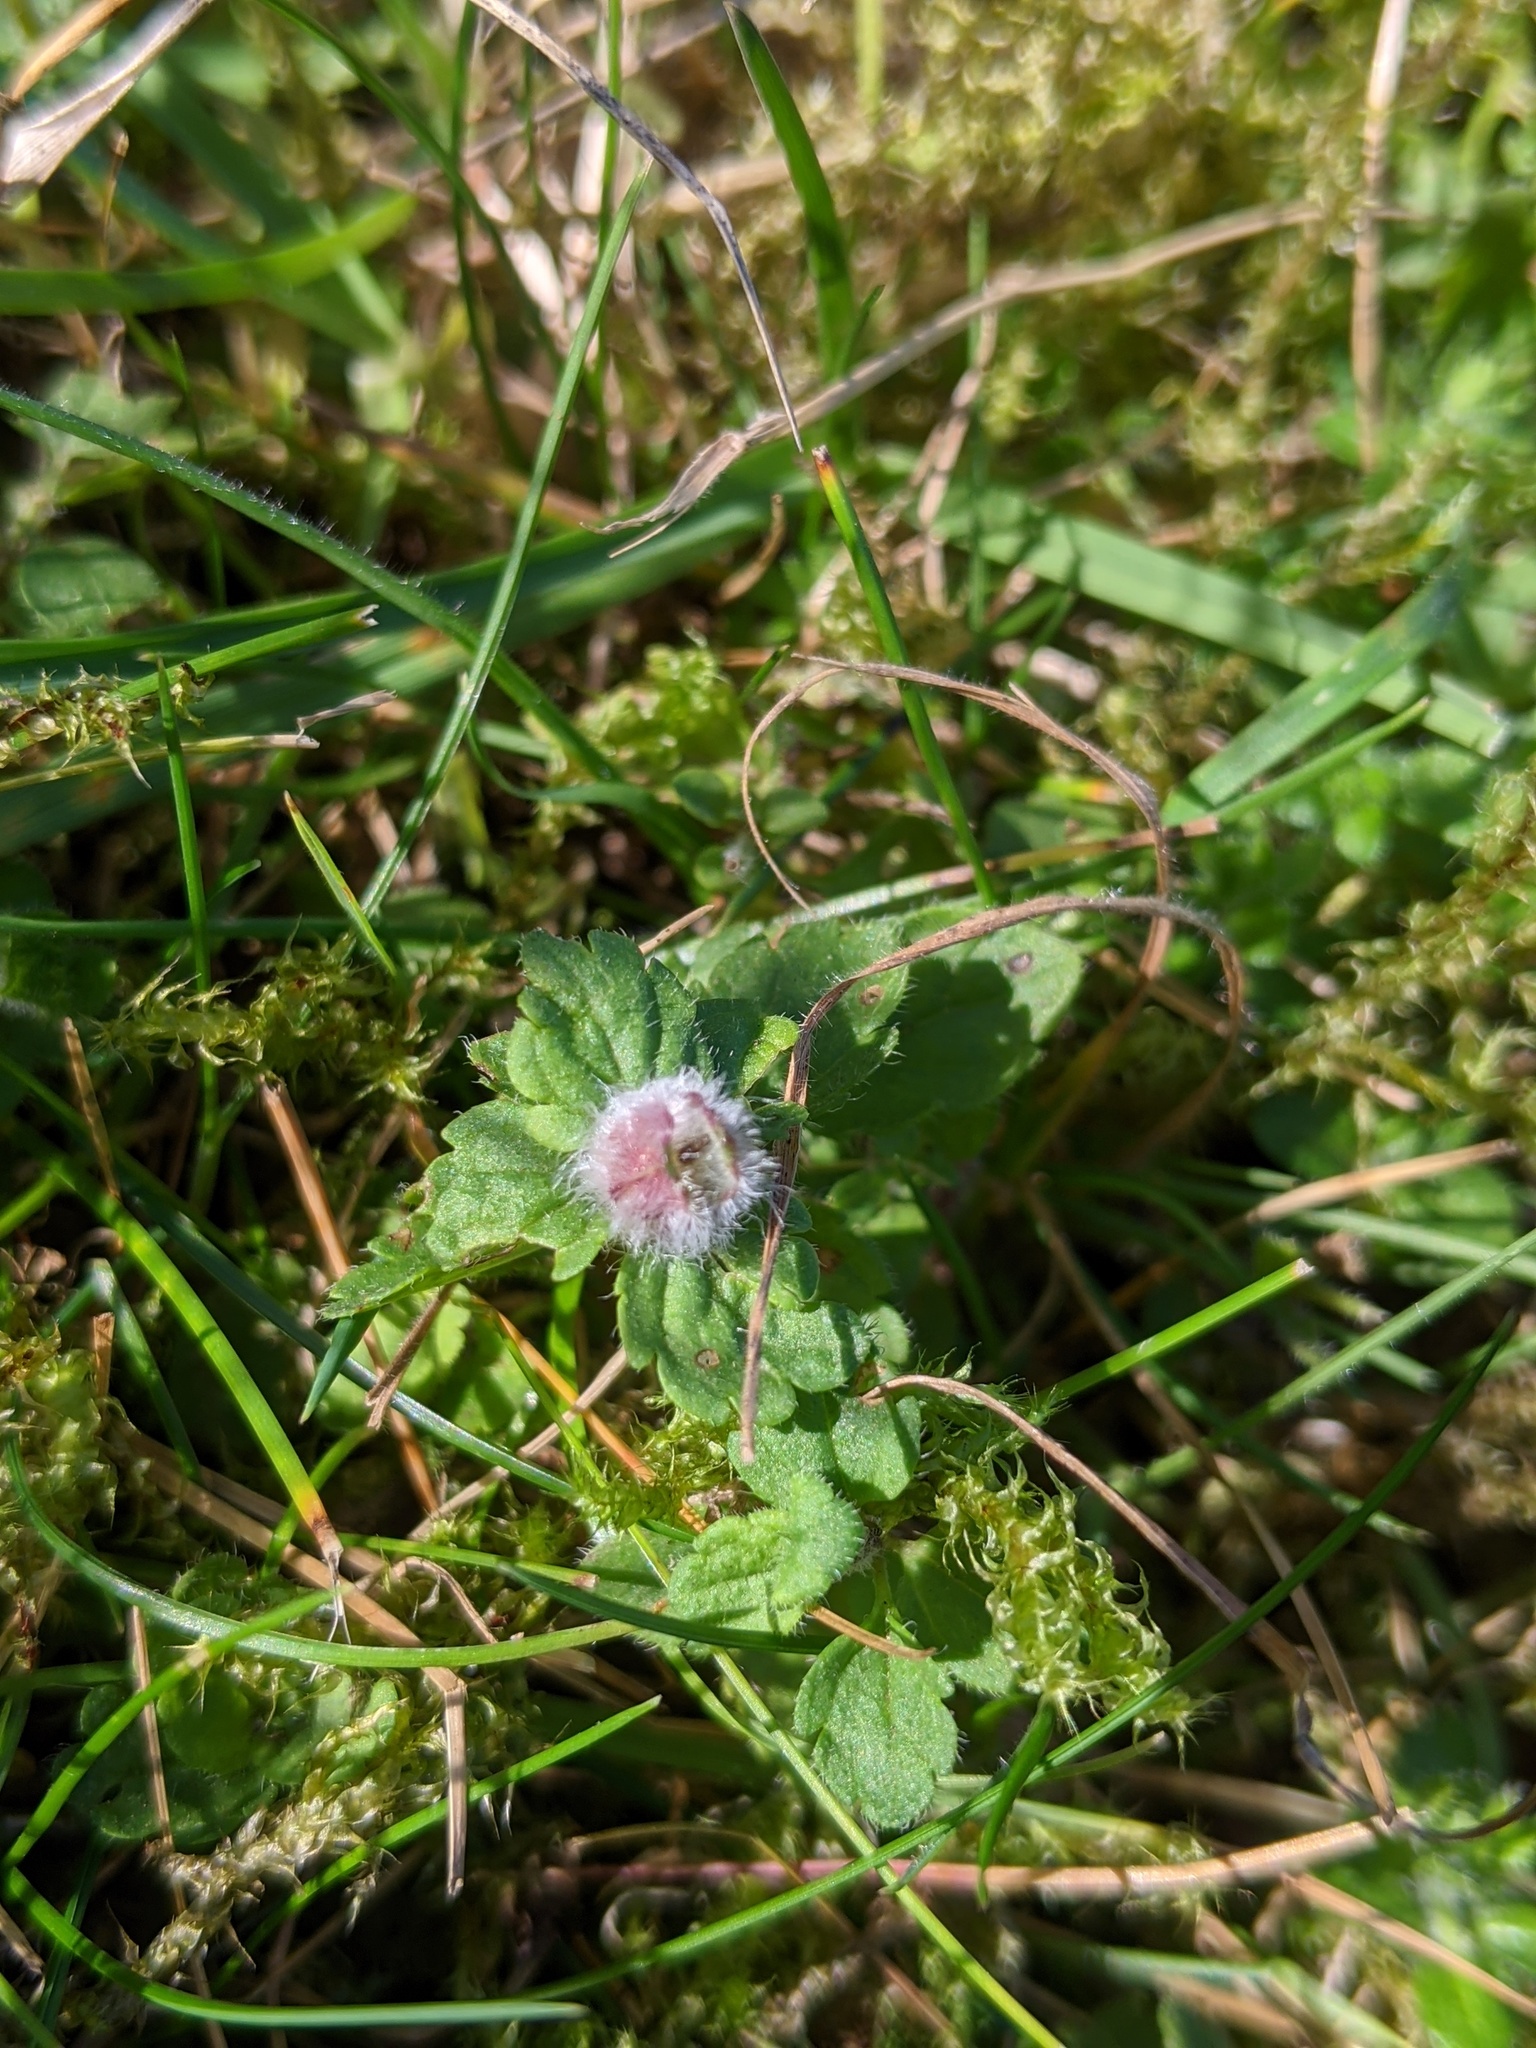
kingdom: Plantae
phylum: Tracheophyta
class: Magnoliopsida
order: Lamiales
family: Plantaginaceae
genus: Veronica
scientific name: Veronica chamaedrys
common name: Germander speedwell
